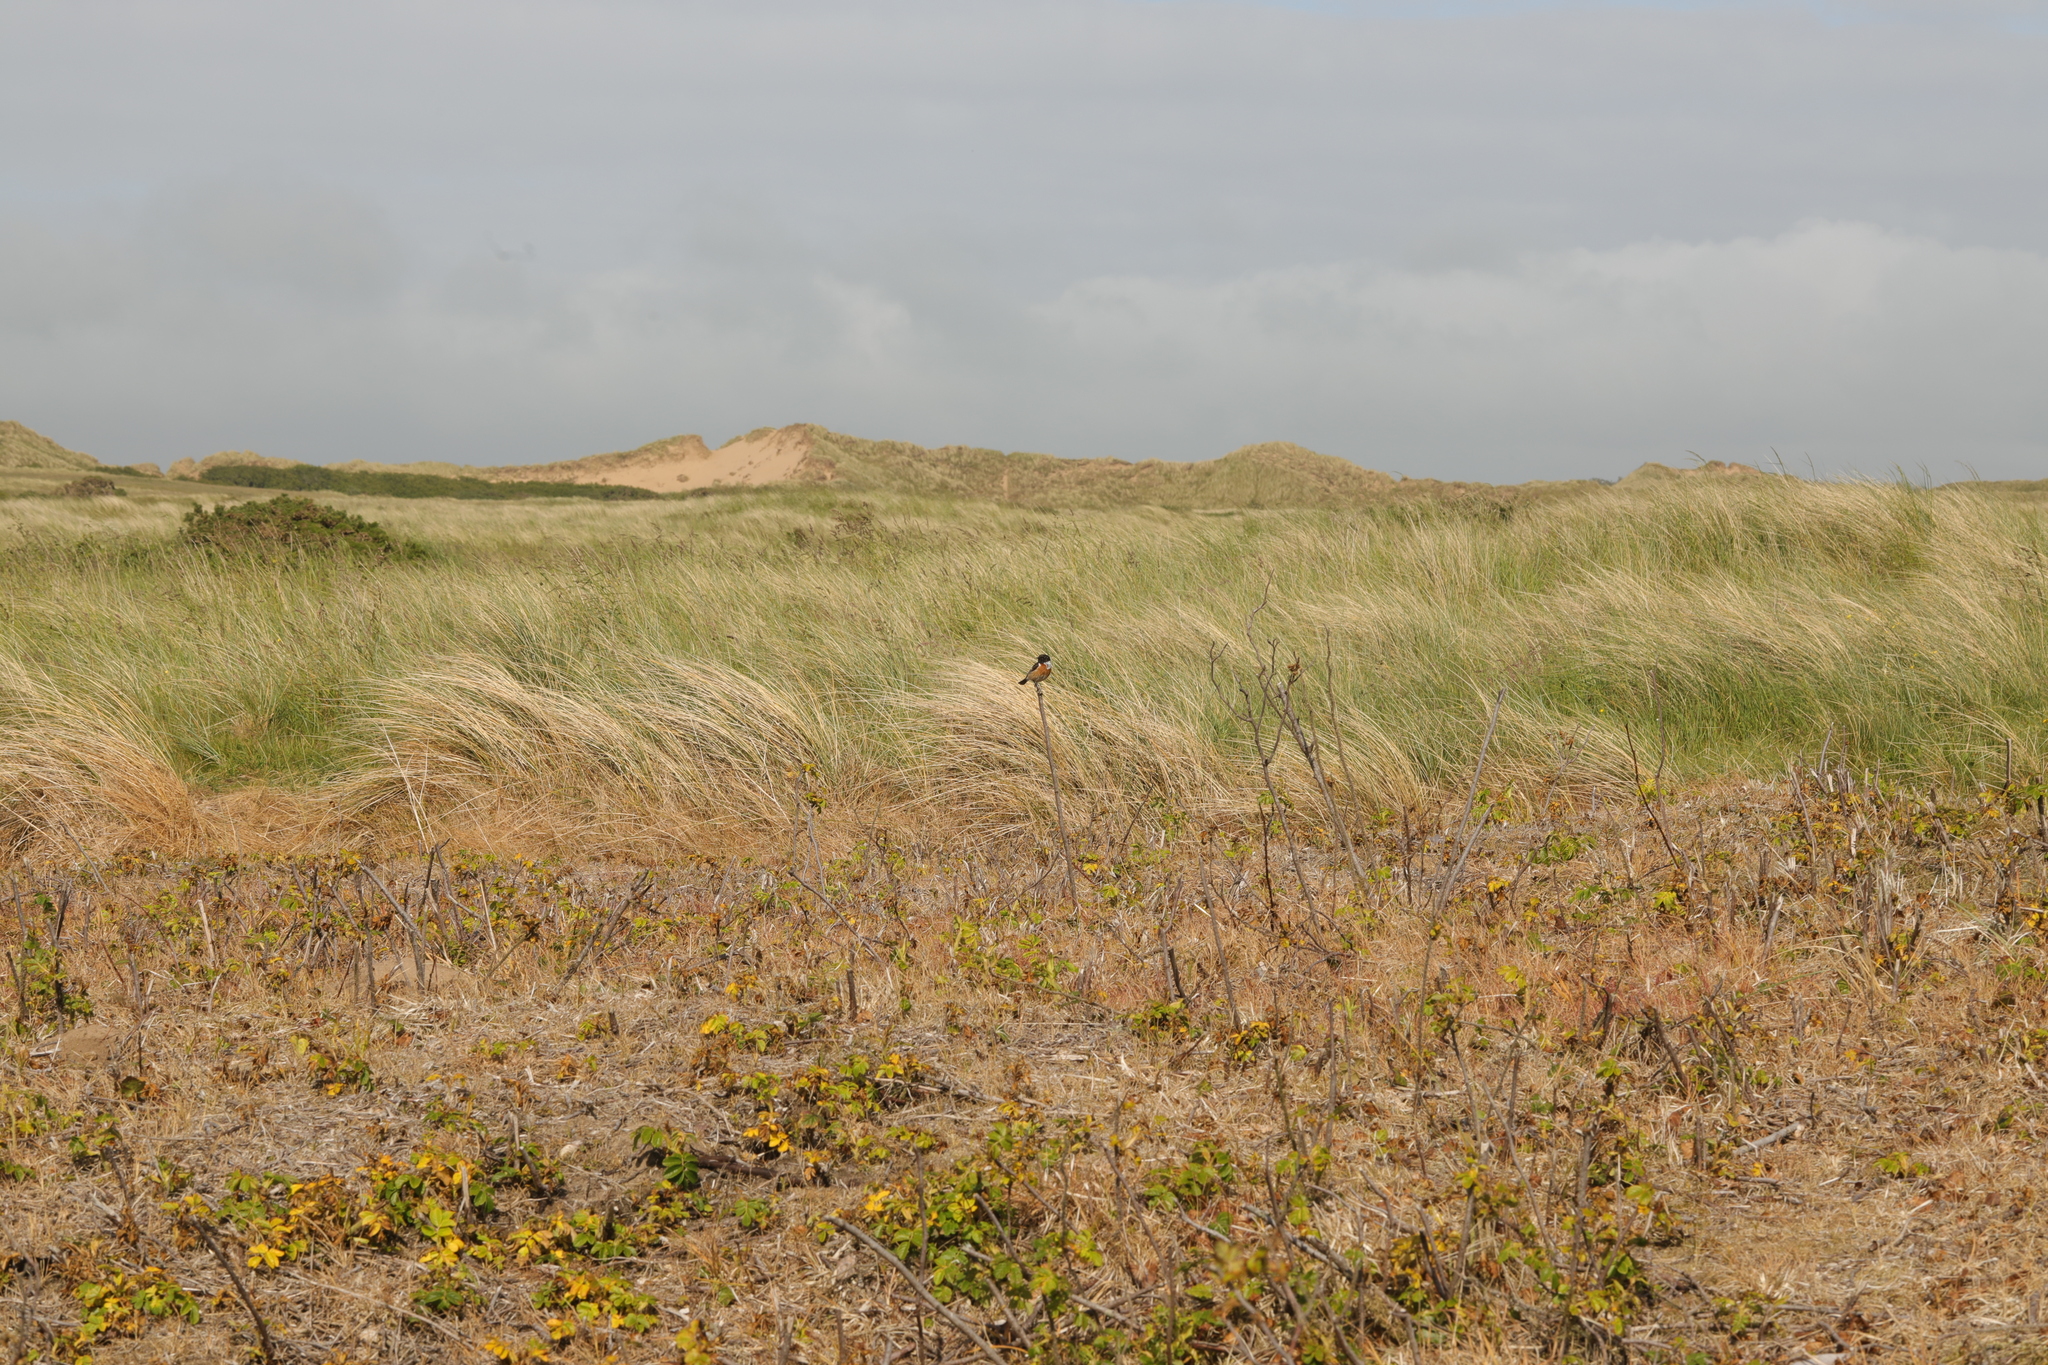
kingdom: Animalia
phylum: Chordata
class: Aves
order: Passeriformes
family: Muscicapidae
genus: Saxicola
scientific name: Saxicola rubicola
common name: European stonechat
